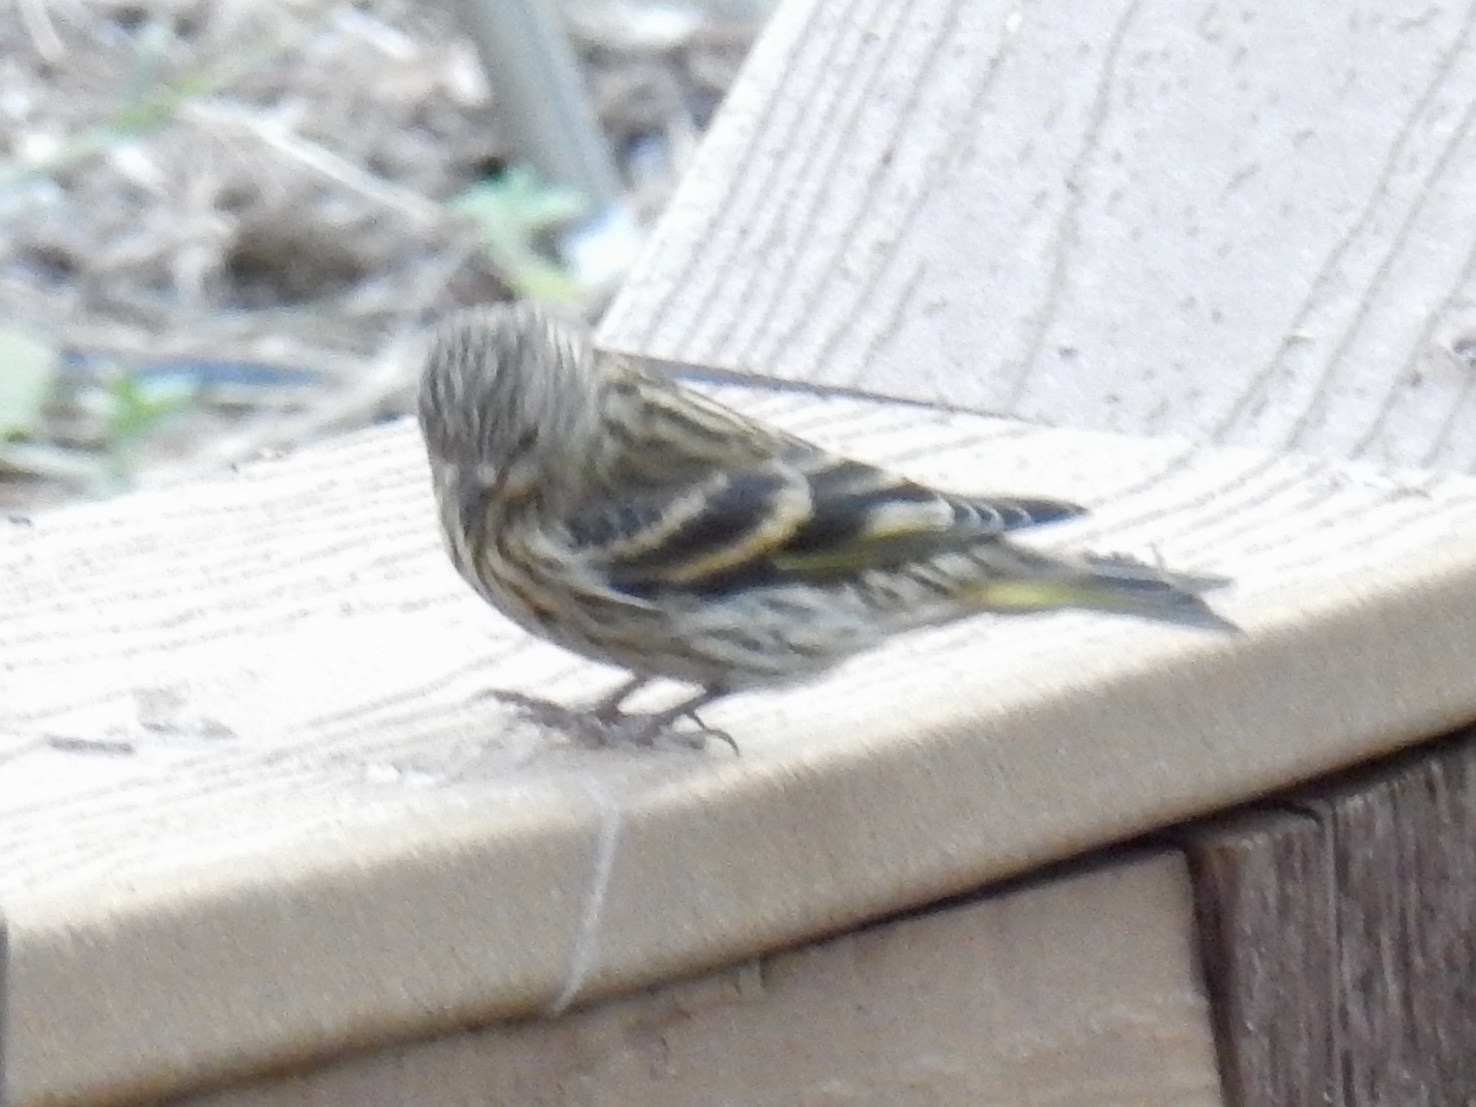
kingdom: Animalia
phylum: Chordata
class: Aves
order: Passeriformes
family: Fringillidae
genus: Spinus
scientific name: Spinus pinus
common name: Pine siskin
